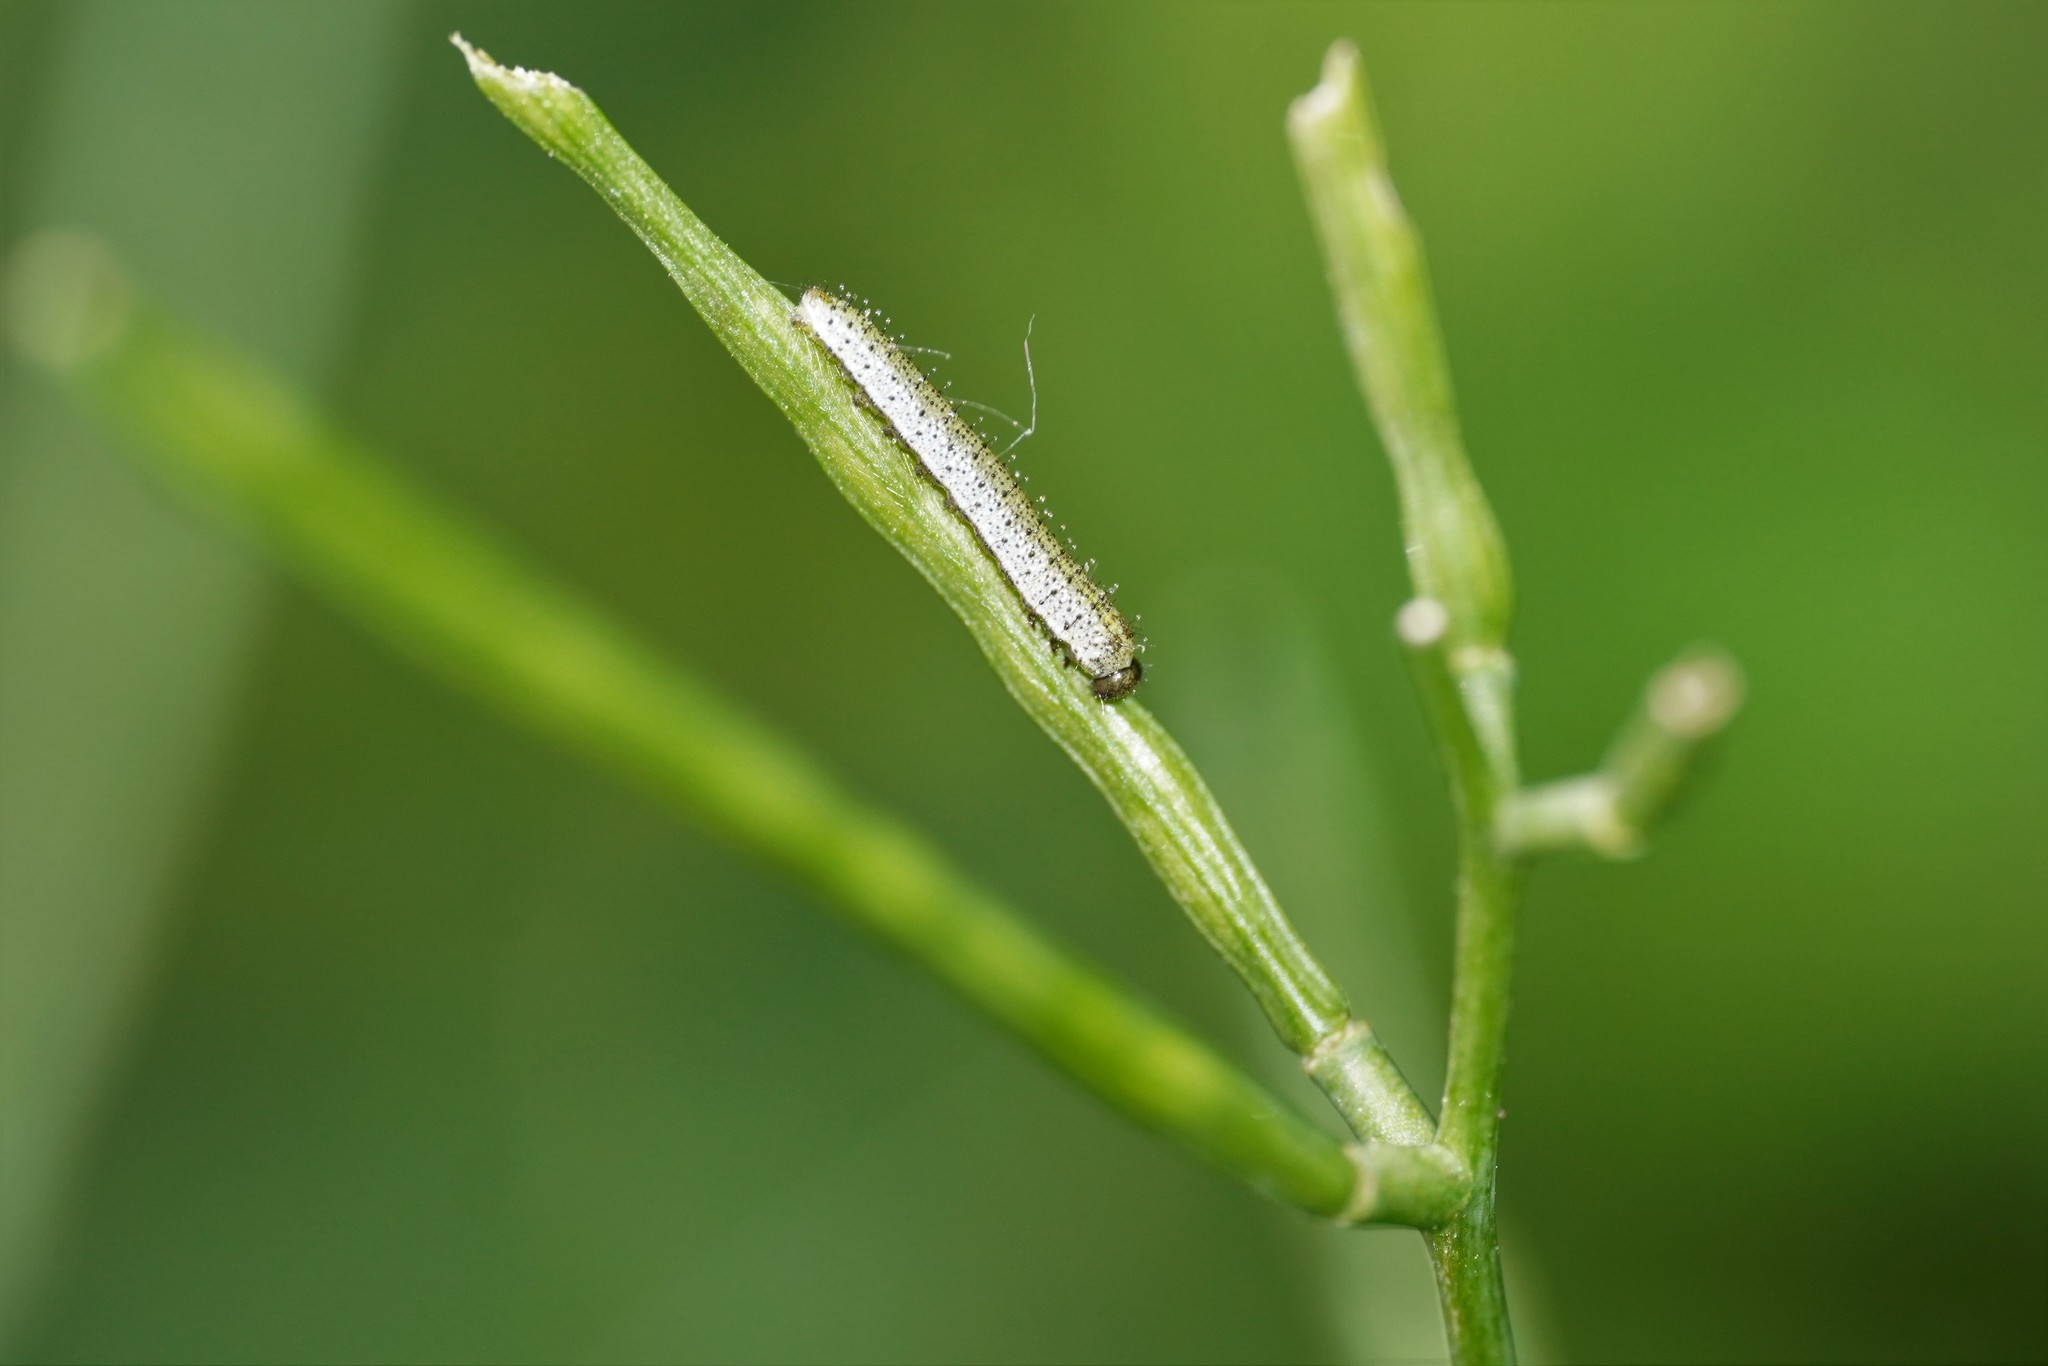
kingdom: Animalia
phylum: Arthropoda
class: Insecta
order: Lepidoptera
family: Pieridae
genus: Anthocharis
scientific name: Anthocharis cardamines
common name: Orange-tip
